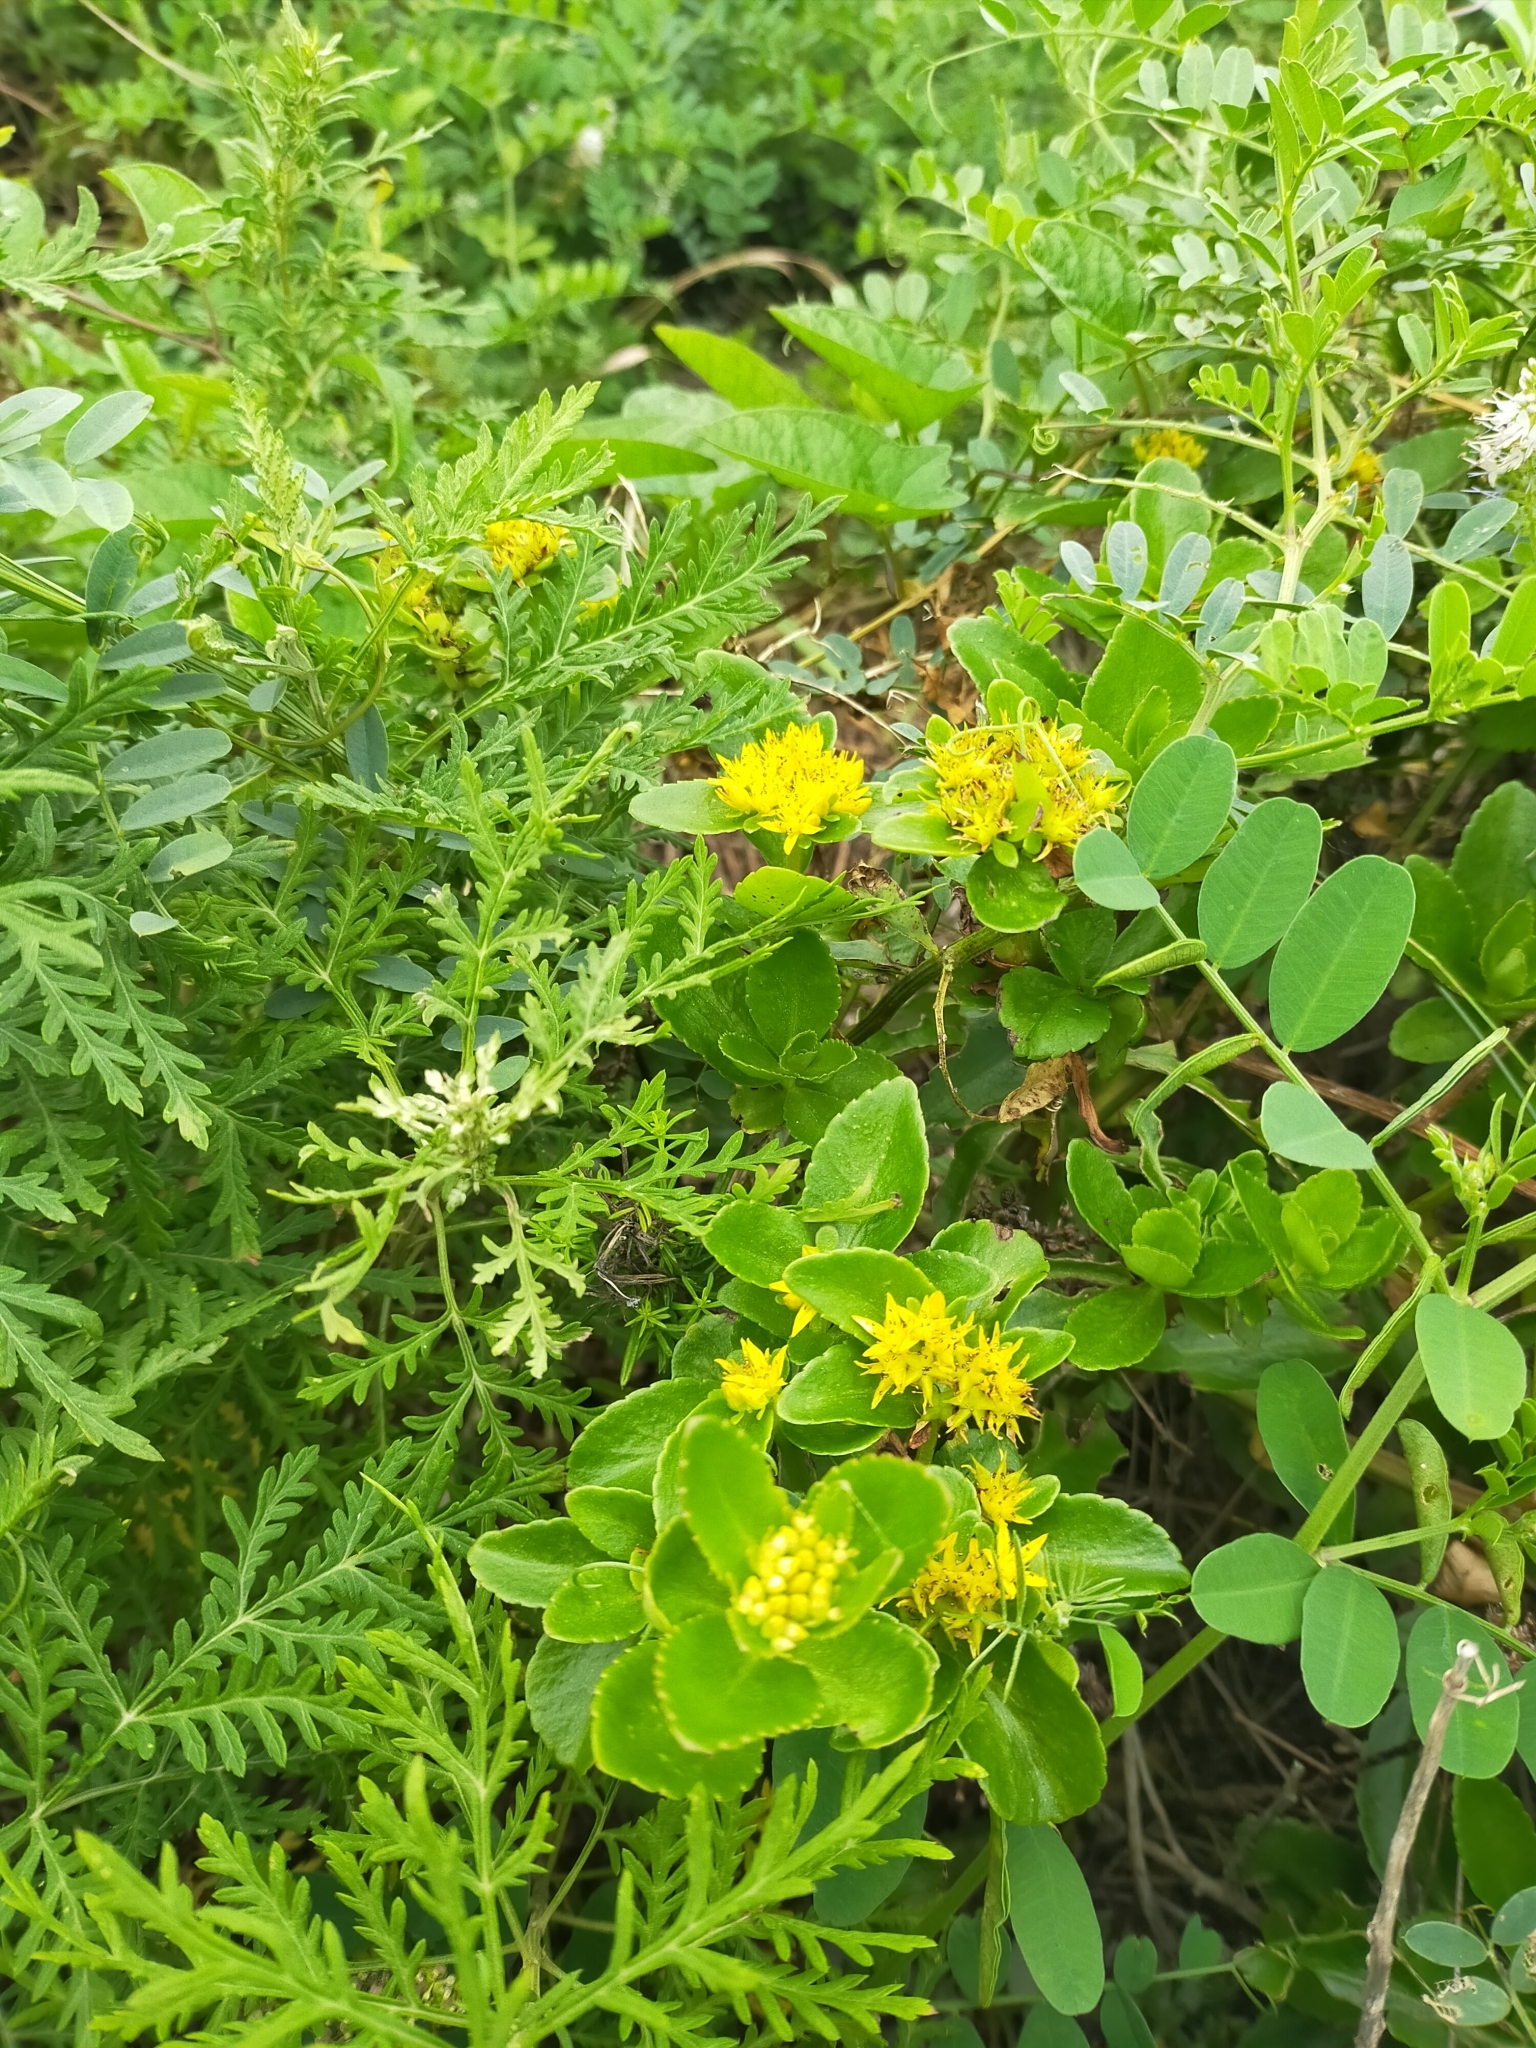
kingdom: Plantae
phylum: Tracheophyta
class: Magnoliopsida
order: Saxifragales
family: Crassulaceae
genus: Phedimus
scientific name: Phedimus litoralis
